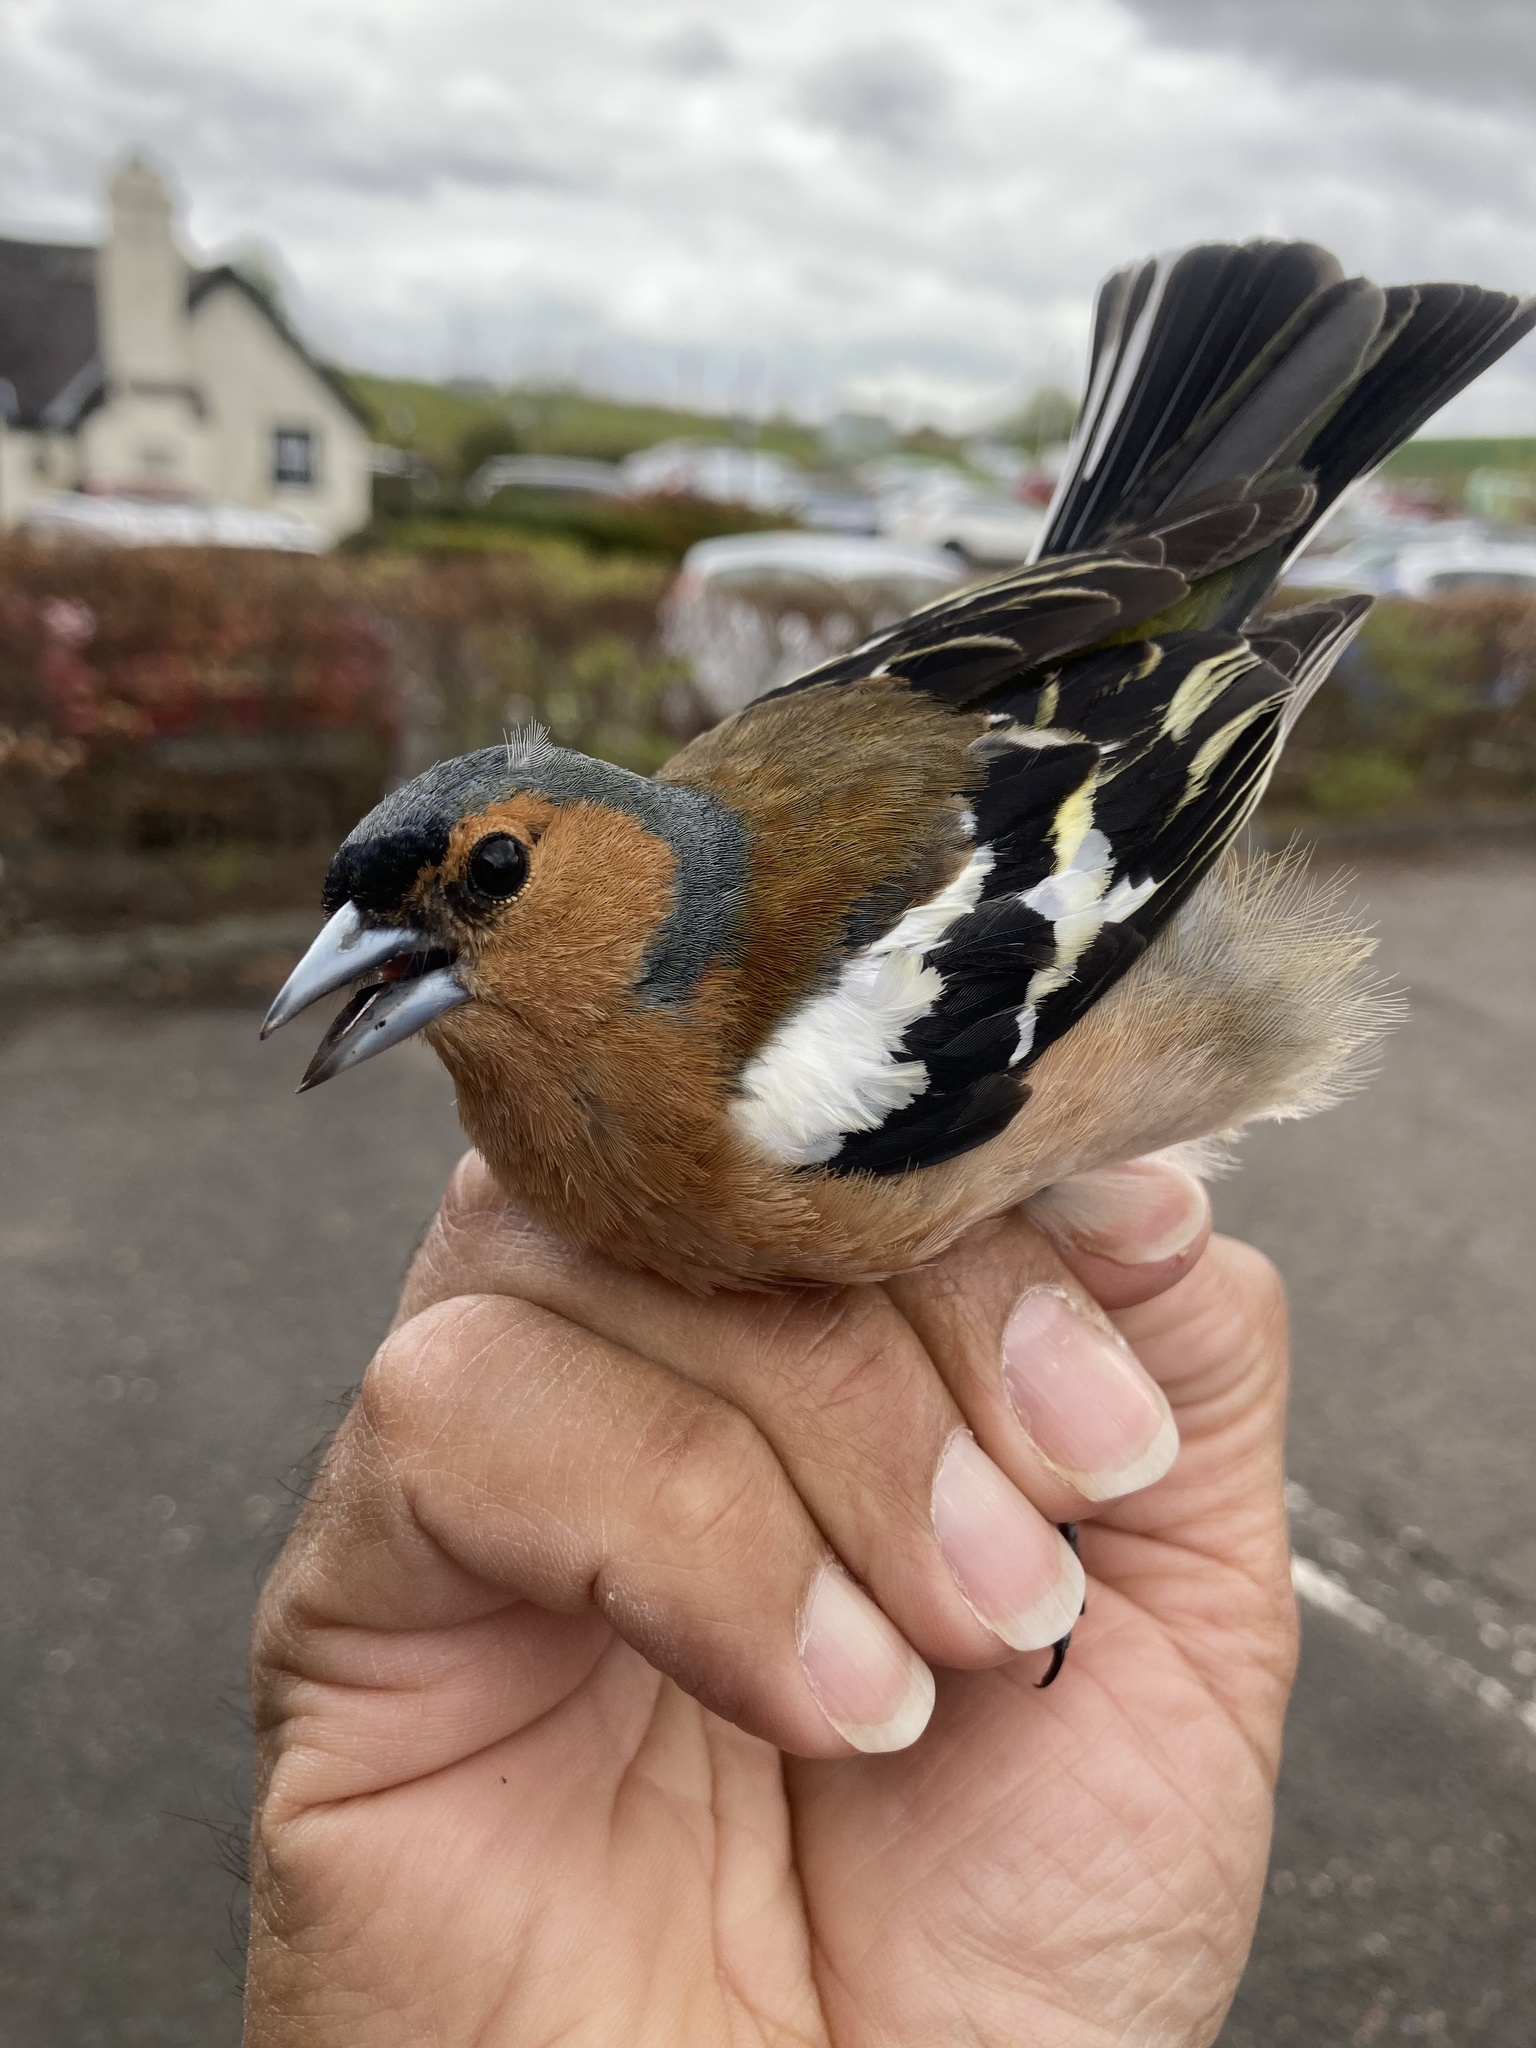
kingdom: Animalia
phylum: Chordata
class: Aves
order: Passeriformes
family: Fringillidae
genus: Fringilla
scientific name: Fringilla coelebs
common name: Common chaffinch
